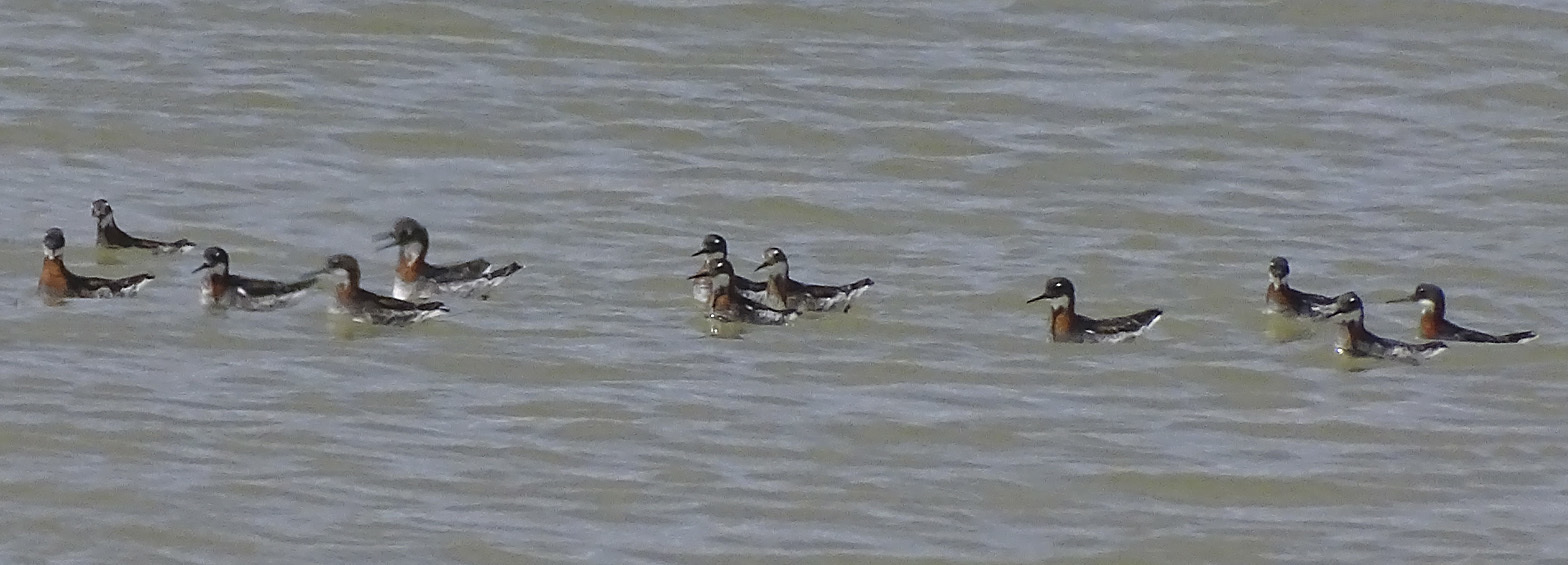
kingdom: Animalia
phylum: Chordata
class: Aves
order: Charadriiformes
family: Scolopacidae
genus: Phalaropus
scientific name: Phalaropus lobatus
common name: Red-necked phalarope
